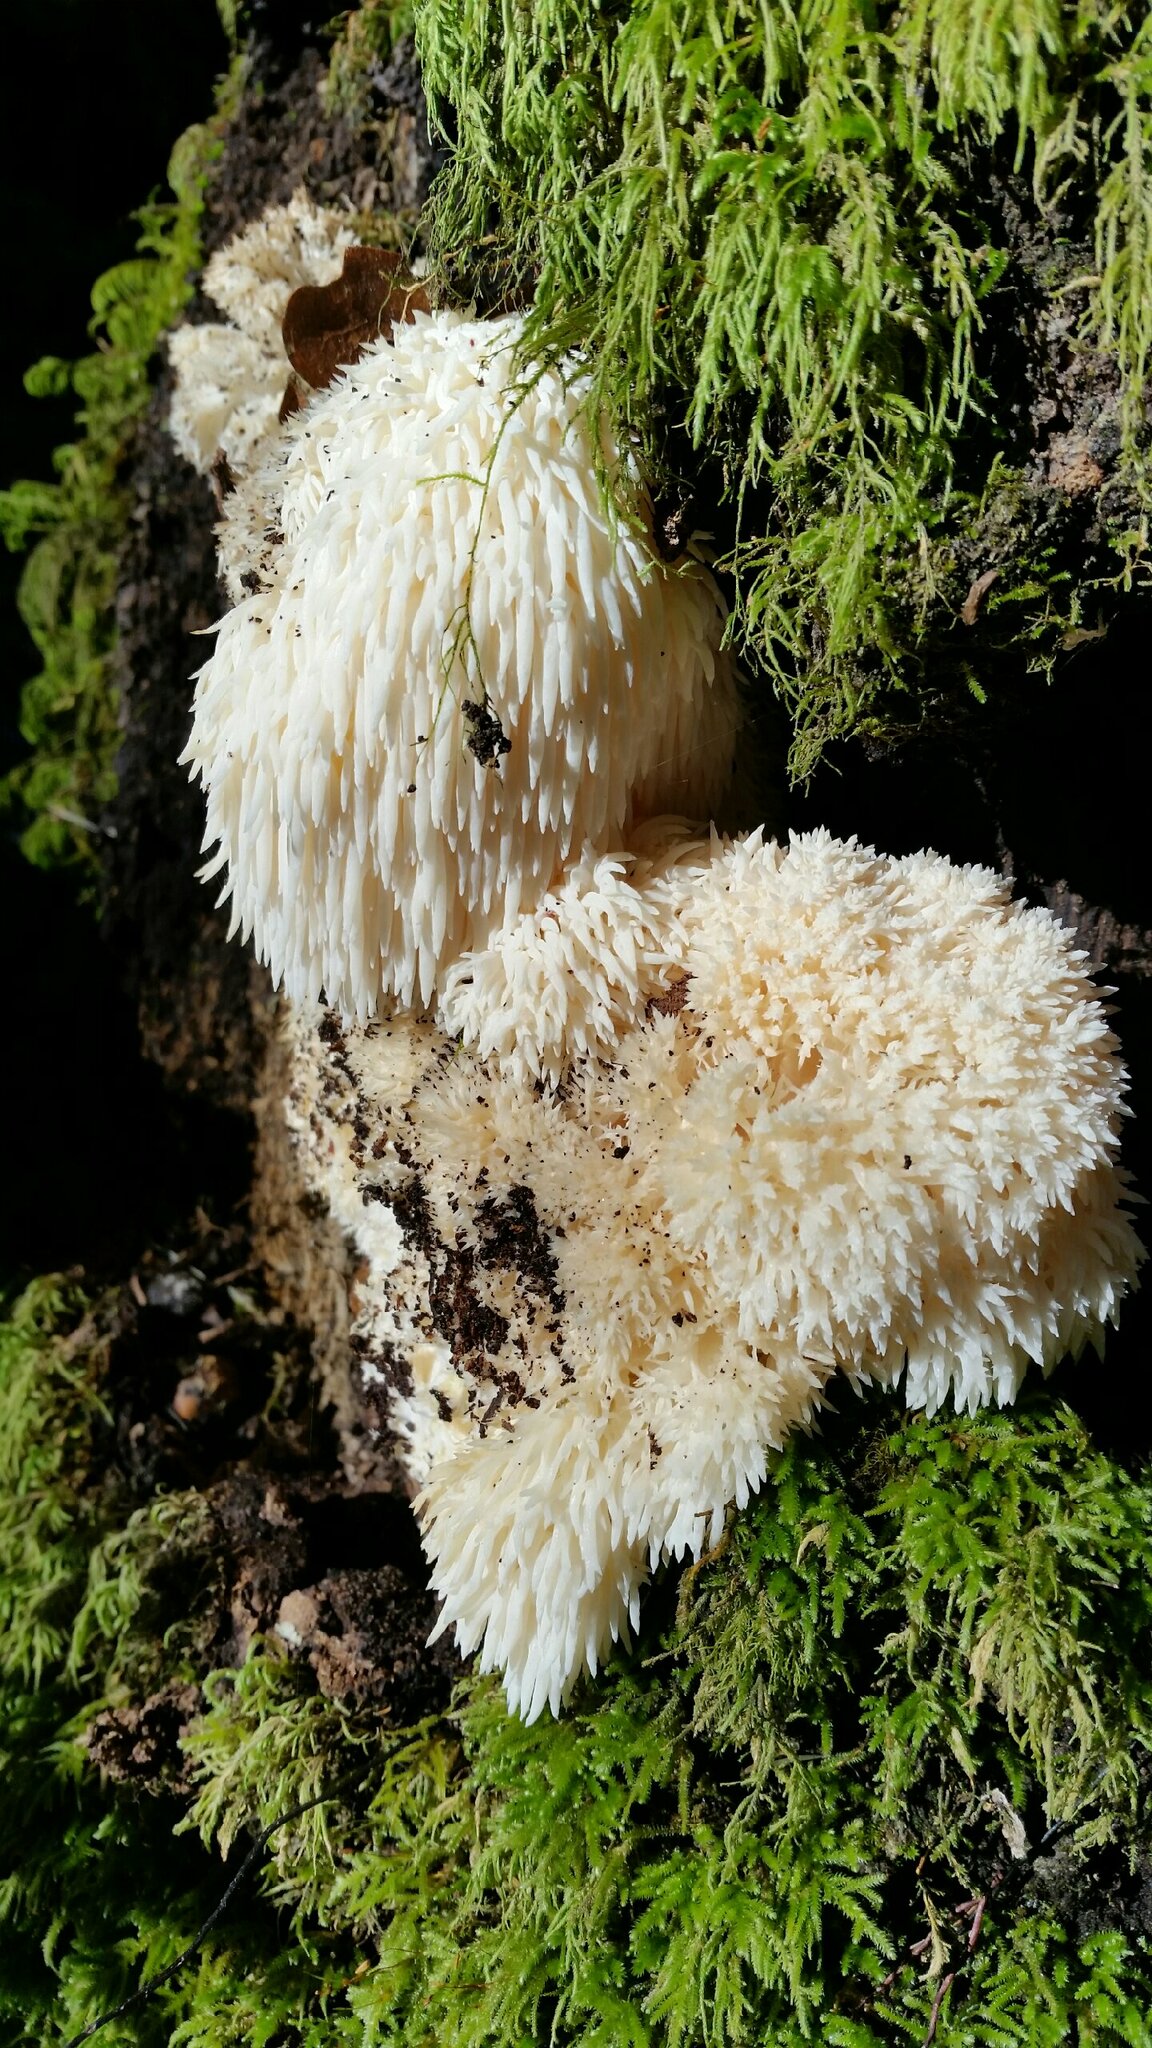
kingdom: Fungi
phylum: Basidiomycota
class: Agaricomycetes
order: Russulales
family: Hericiaceae
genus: Hericium
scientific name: Hericium erinaceus
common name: Bearded tooth
